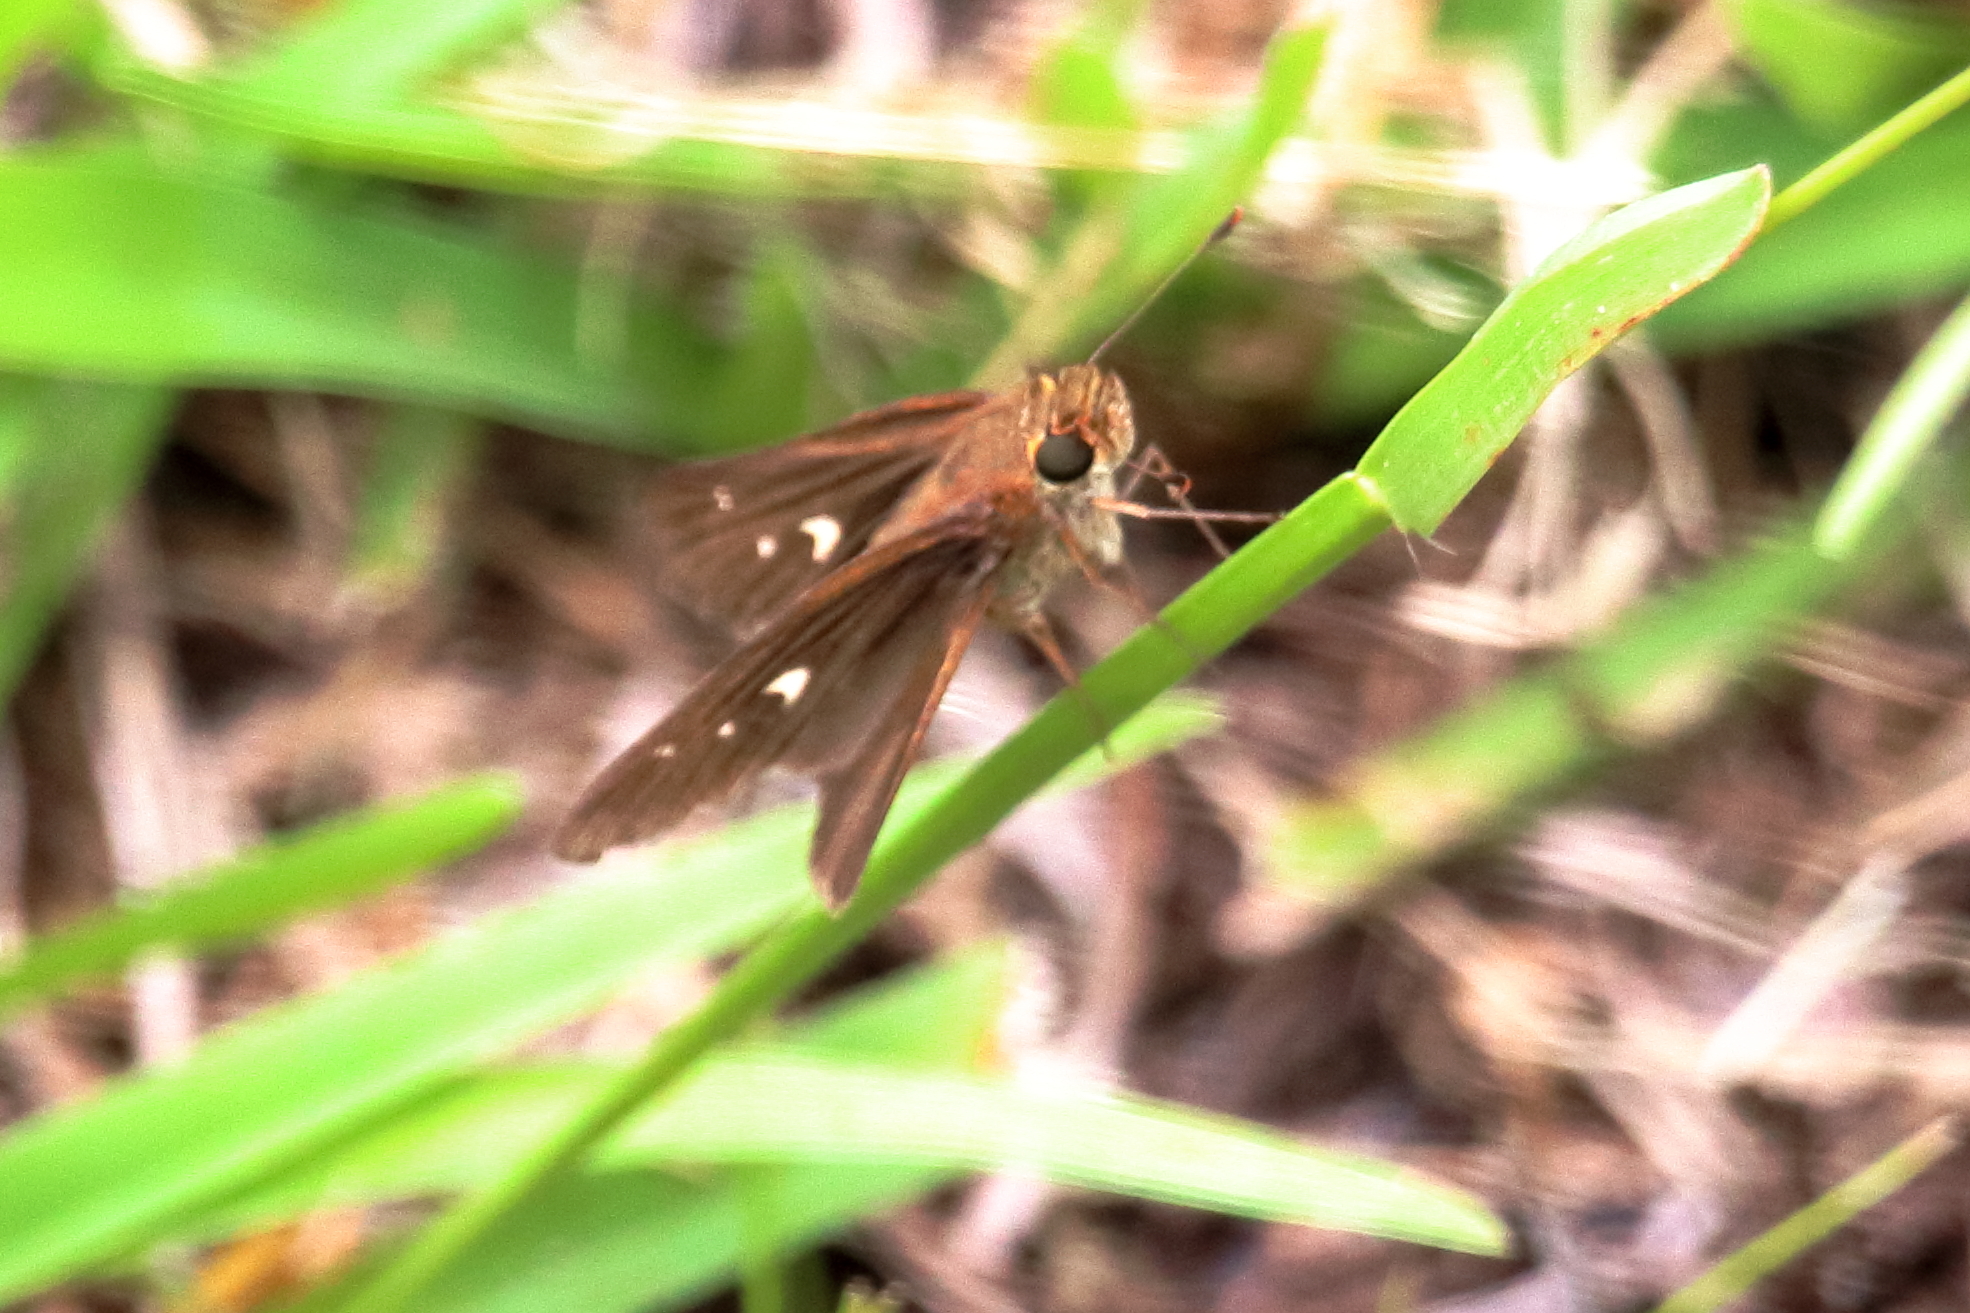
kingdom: Animalia
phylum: Arthropoda
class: Insecta
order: Lepidoptera
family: Hesperiidae
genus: Panoquina
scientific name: Panoquina ocola
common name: Ocola skipper
